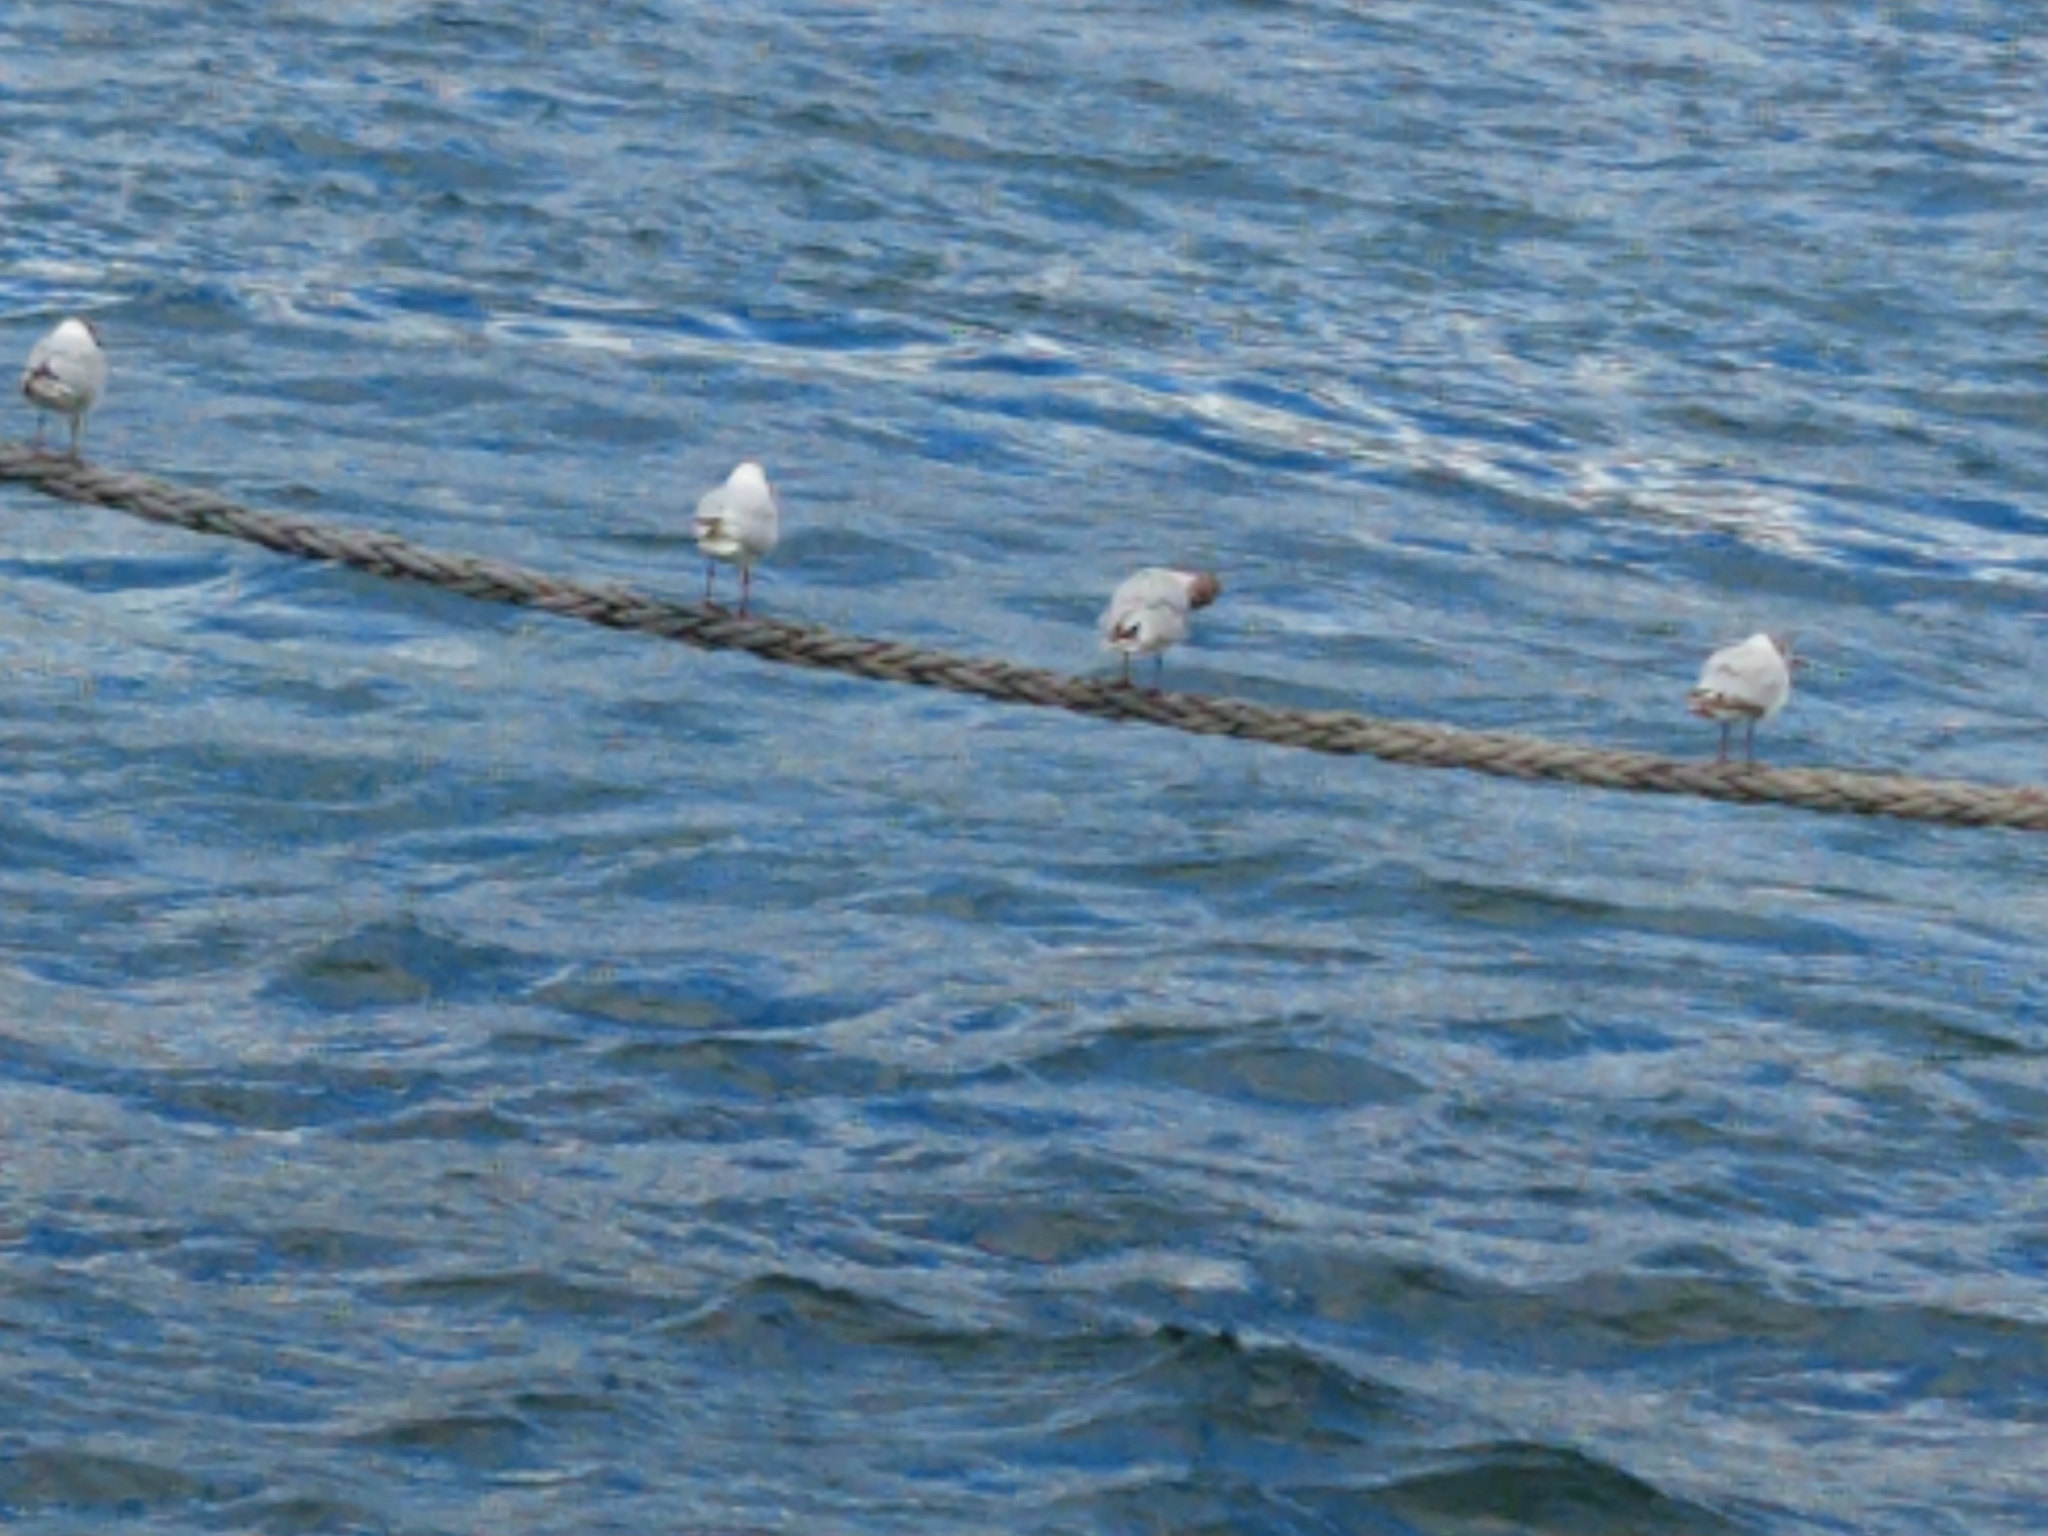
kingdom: Animalia
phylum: Chordata
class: Aves
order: Charadriiformes
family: Laridae
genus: Chroicocephalus
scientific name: Chroicocephalus ridibundus
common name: Black-headed gull
